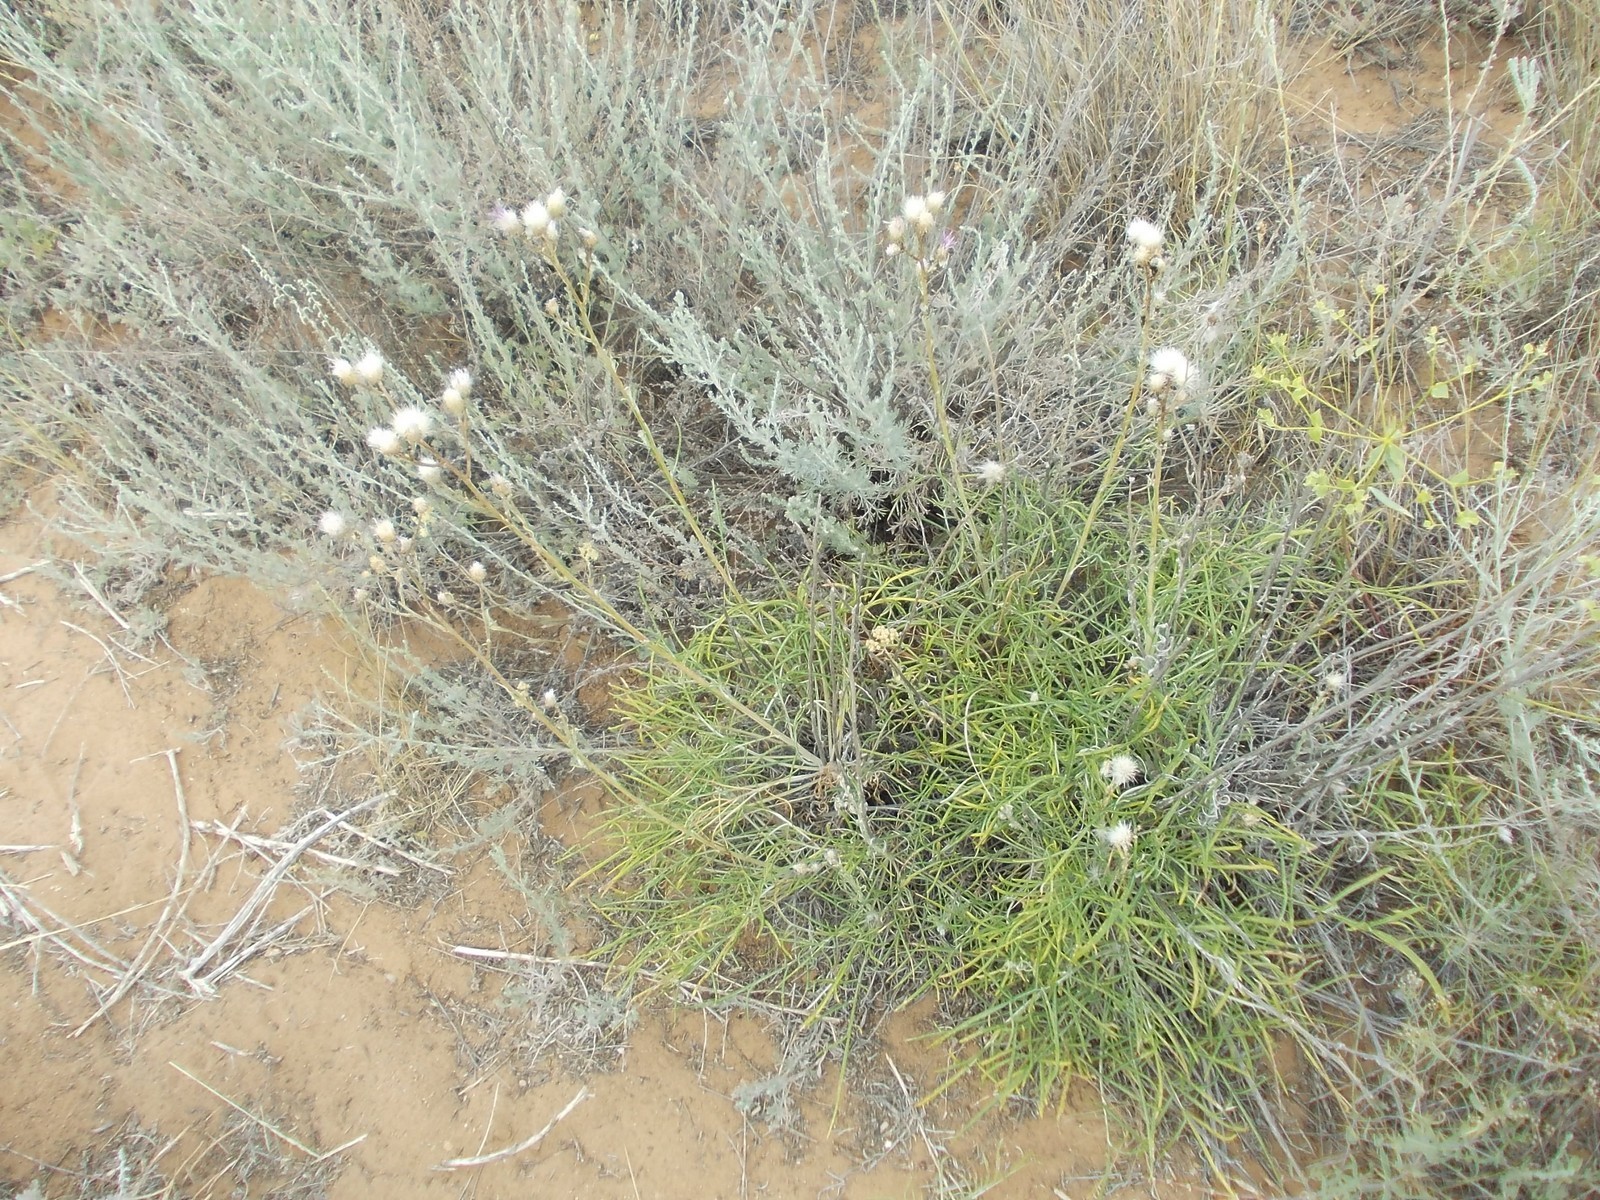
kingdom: Plantae
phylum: Tracheophyta
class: Magnoliopsida
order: Asterales
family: Asteraceae
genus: Jurinea
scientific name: Jurinea polyclonos
